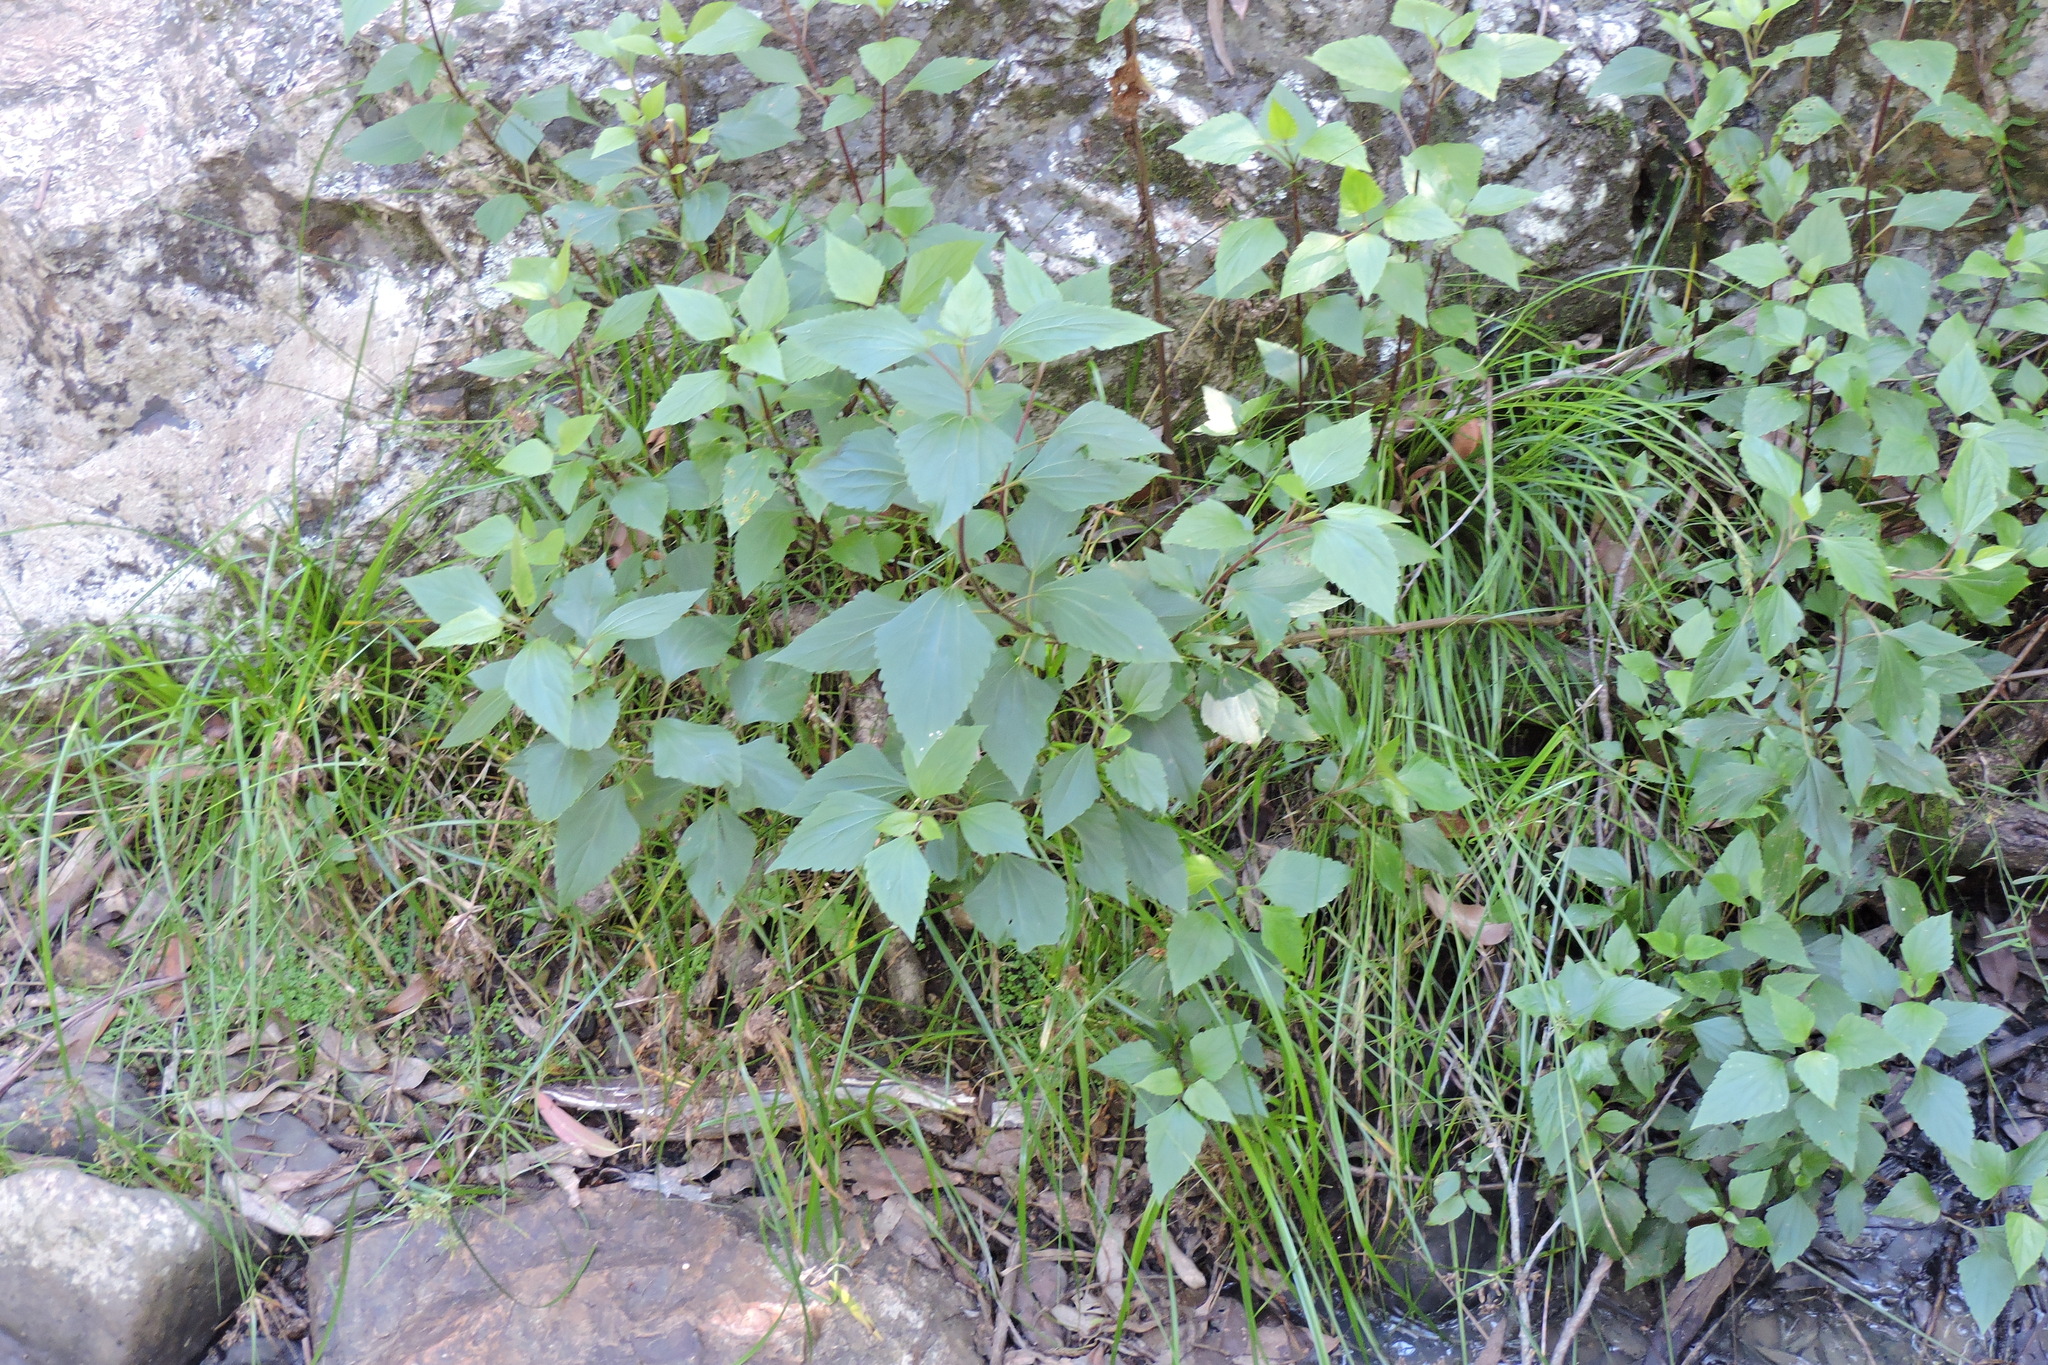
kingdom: Plantae
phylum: Tracheophyta
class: Magnoliopsida
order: Asterales
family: Asteraceae
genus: Ageratina
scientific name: Ageratina adenophora
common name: Sticky snakeroot
